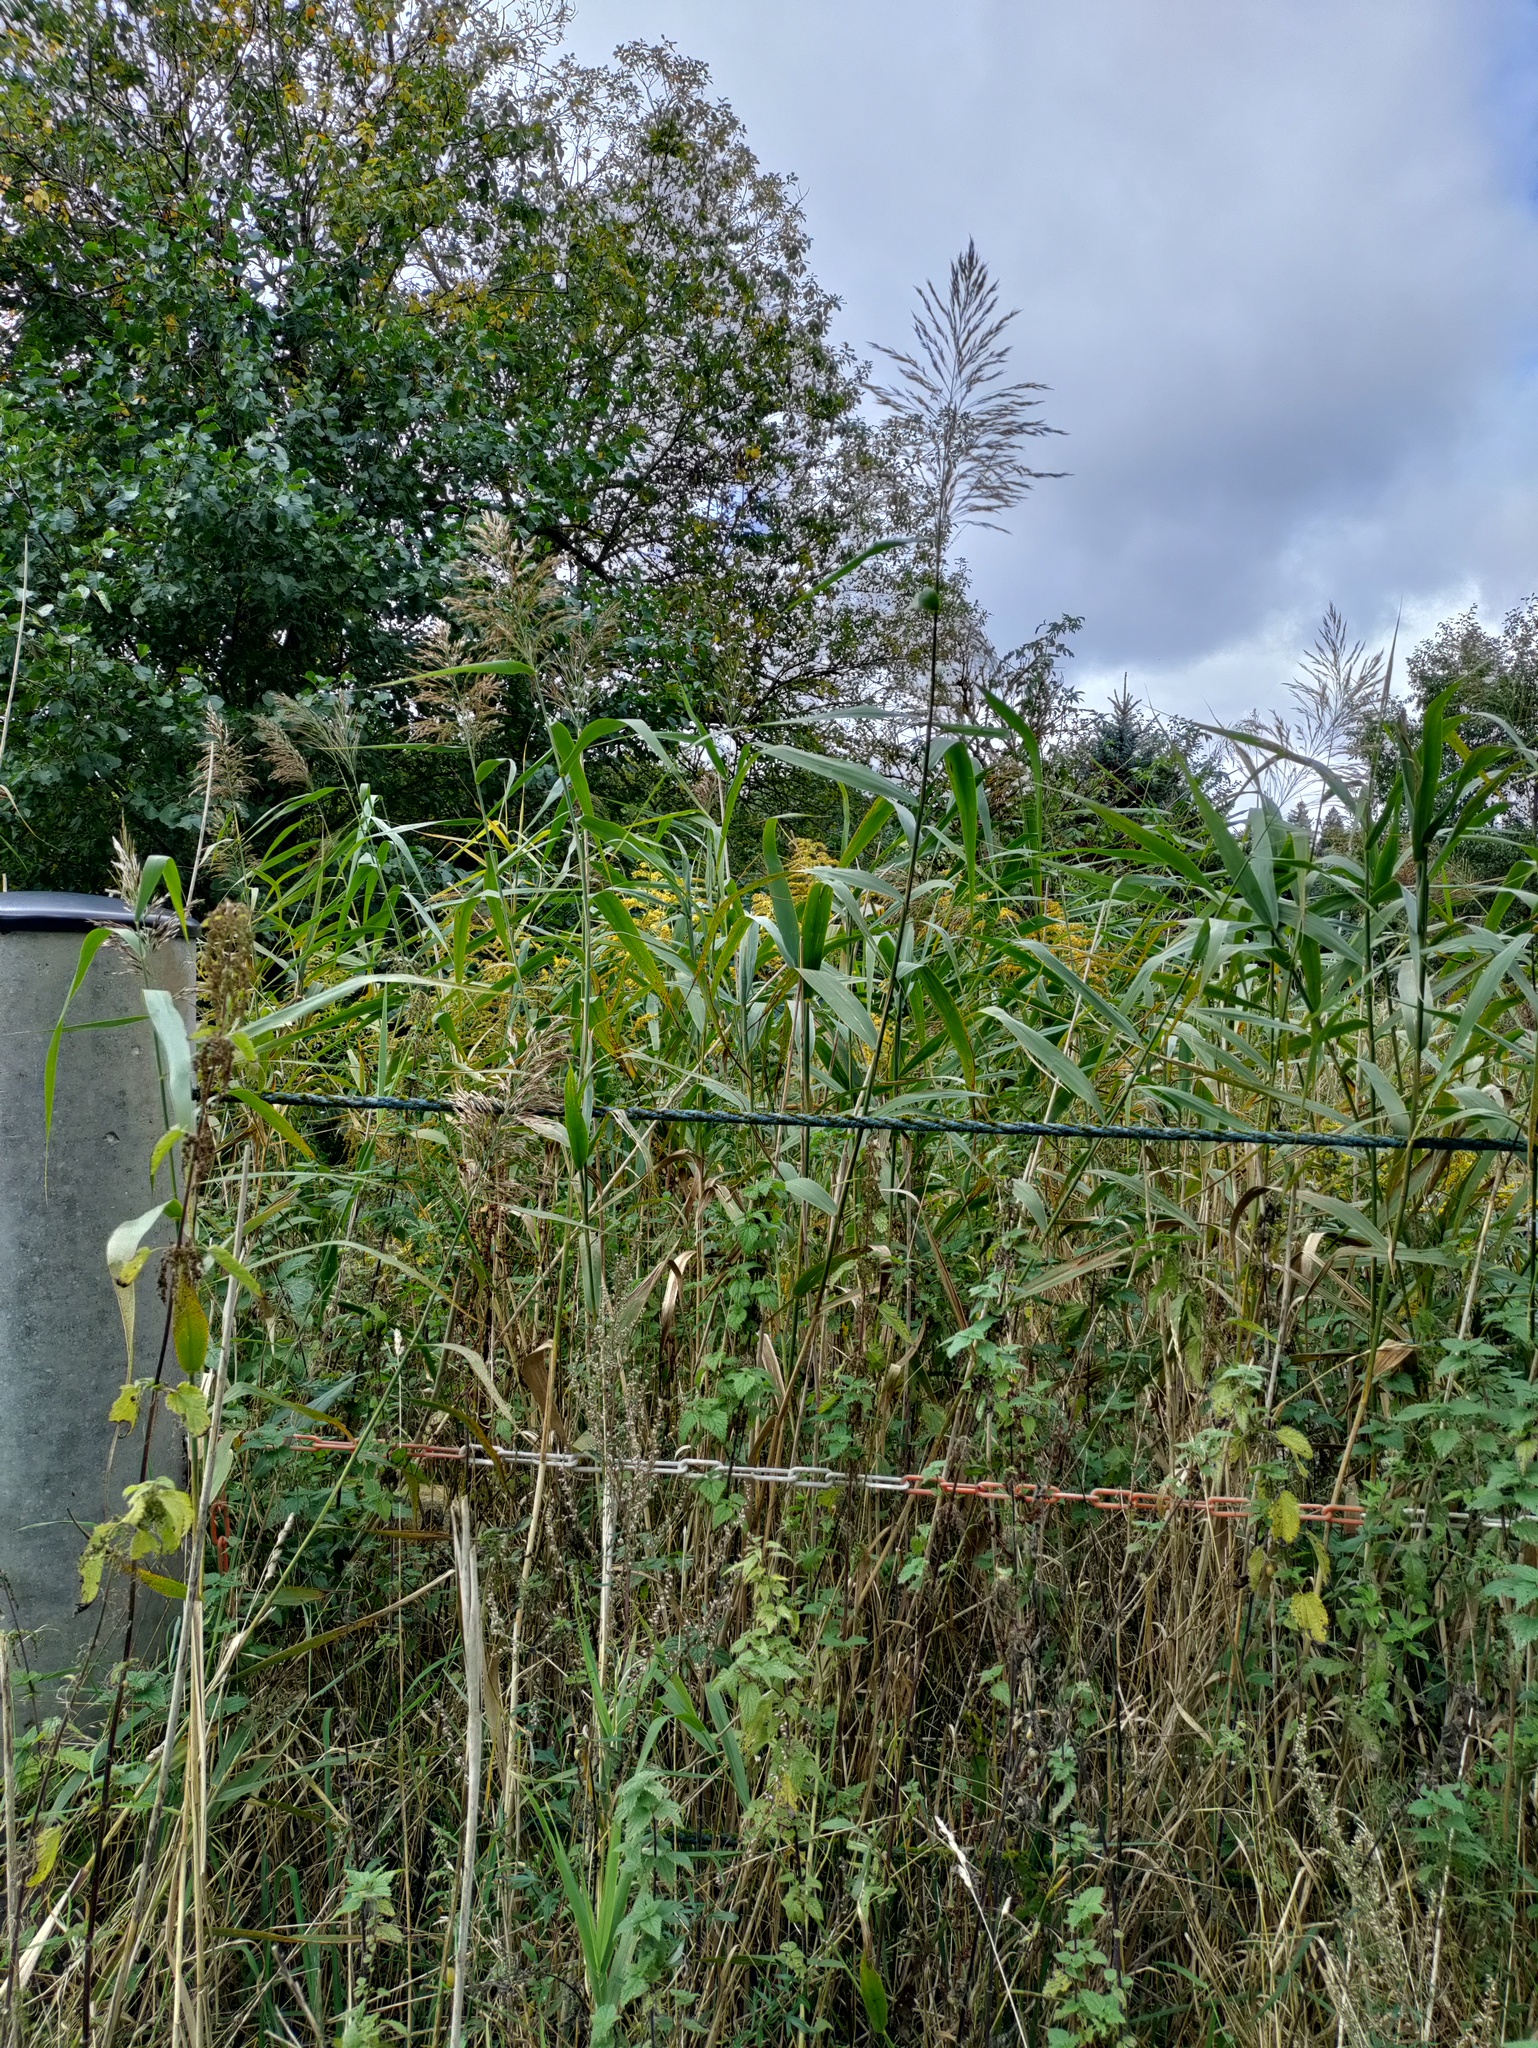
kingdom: Plantae
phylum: Tracheophyta
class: Liliopsida
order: Poales
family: Poaceae
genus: Phragmites
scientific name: Phragmites australis
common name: Common reed
